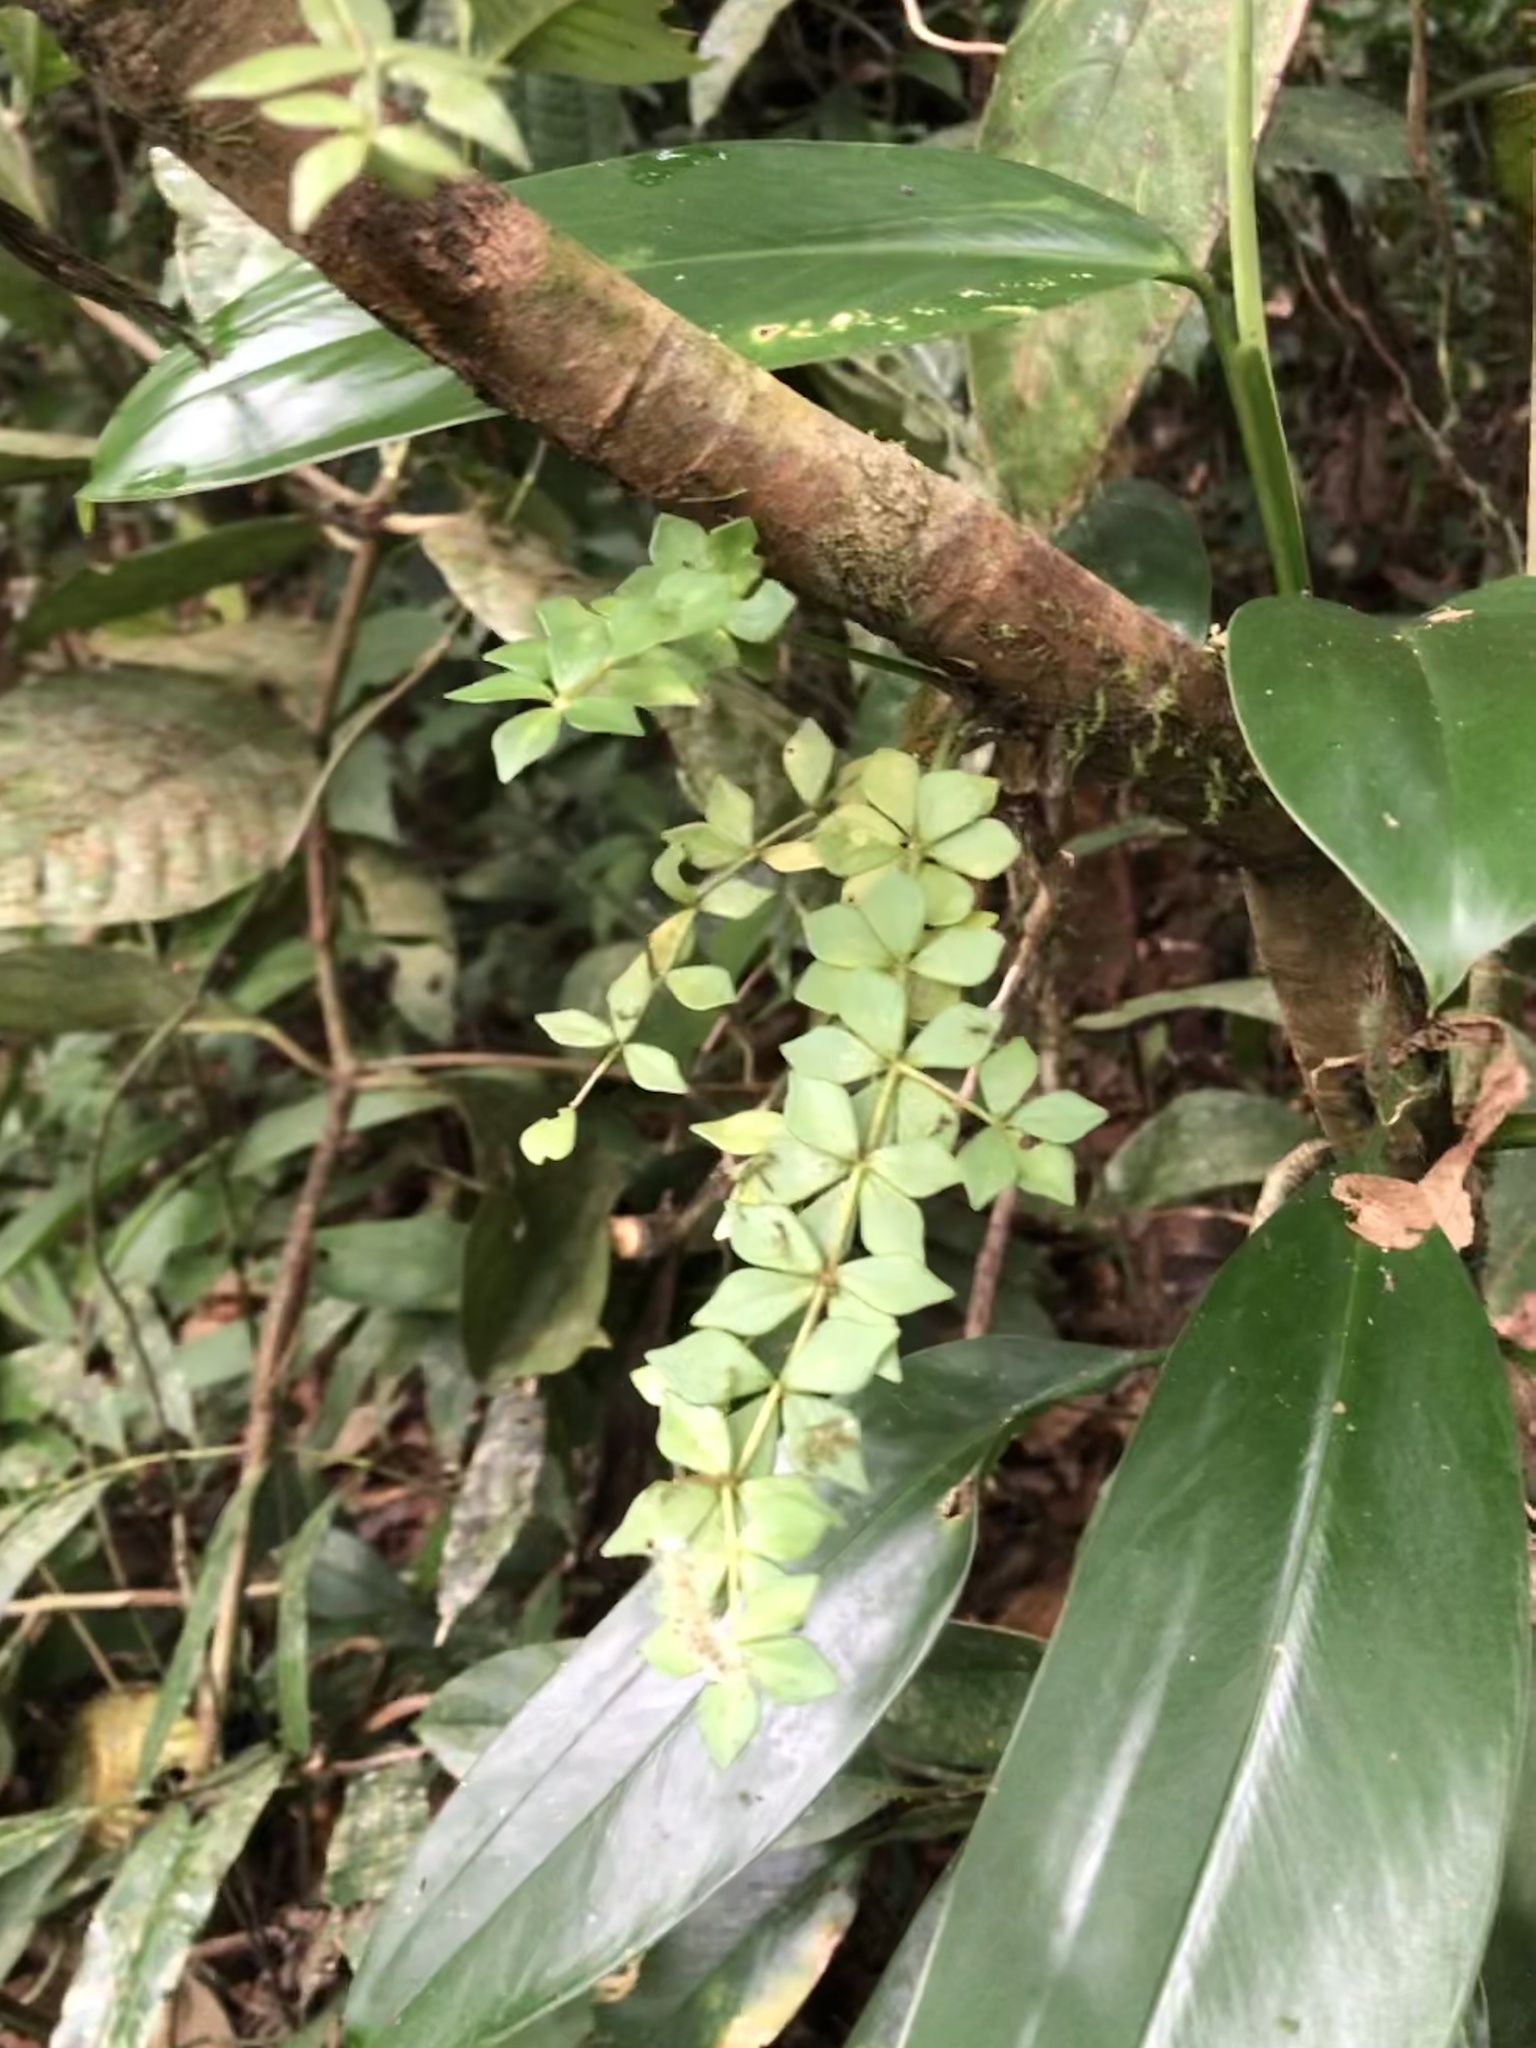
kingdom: Plantae
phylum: Tracheophyta
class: Magnoliopsida
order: Piperales
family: Piperaceae
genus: Peperomia
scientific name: Peperomia quaesita
